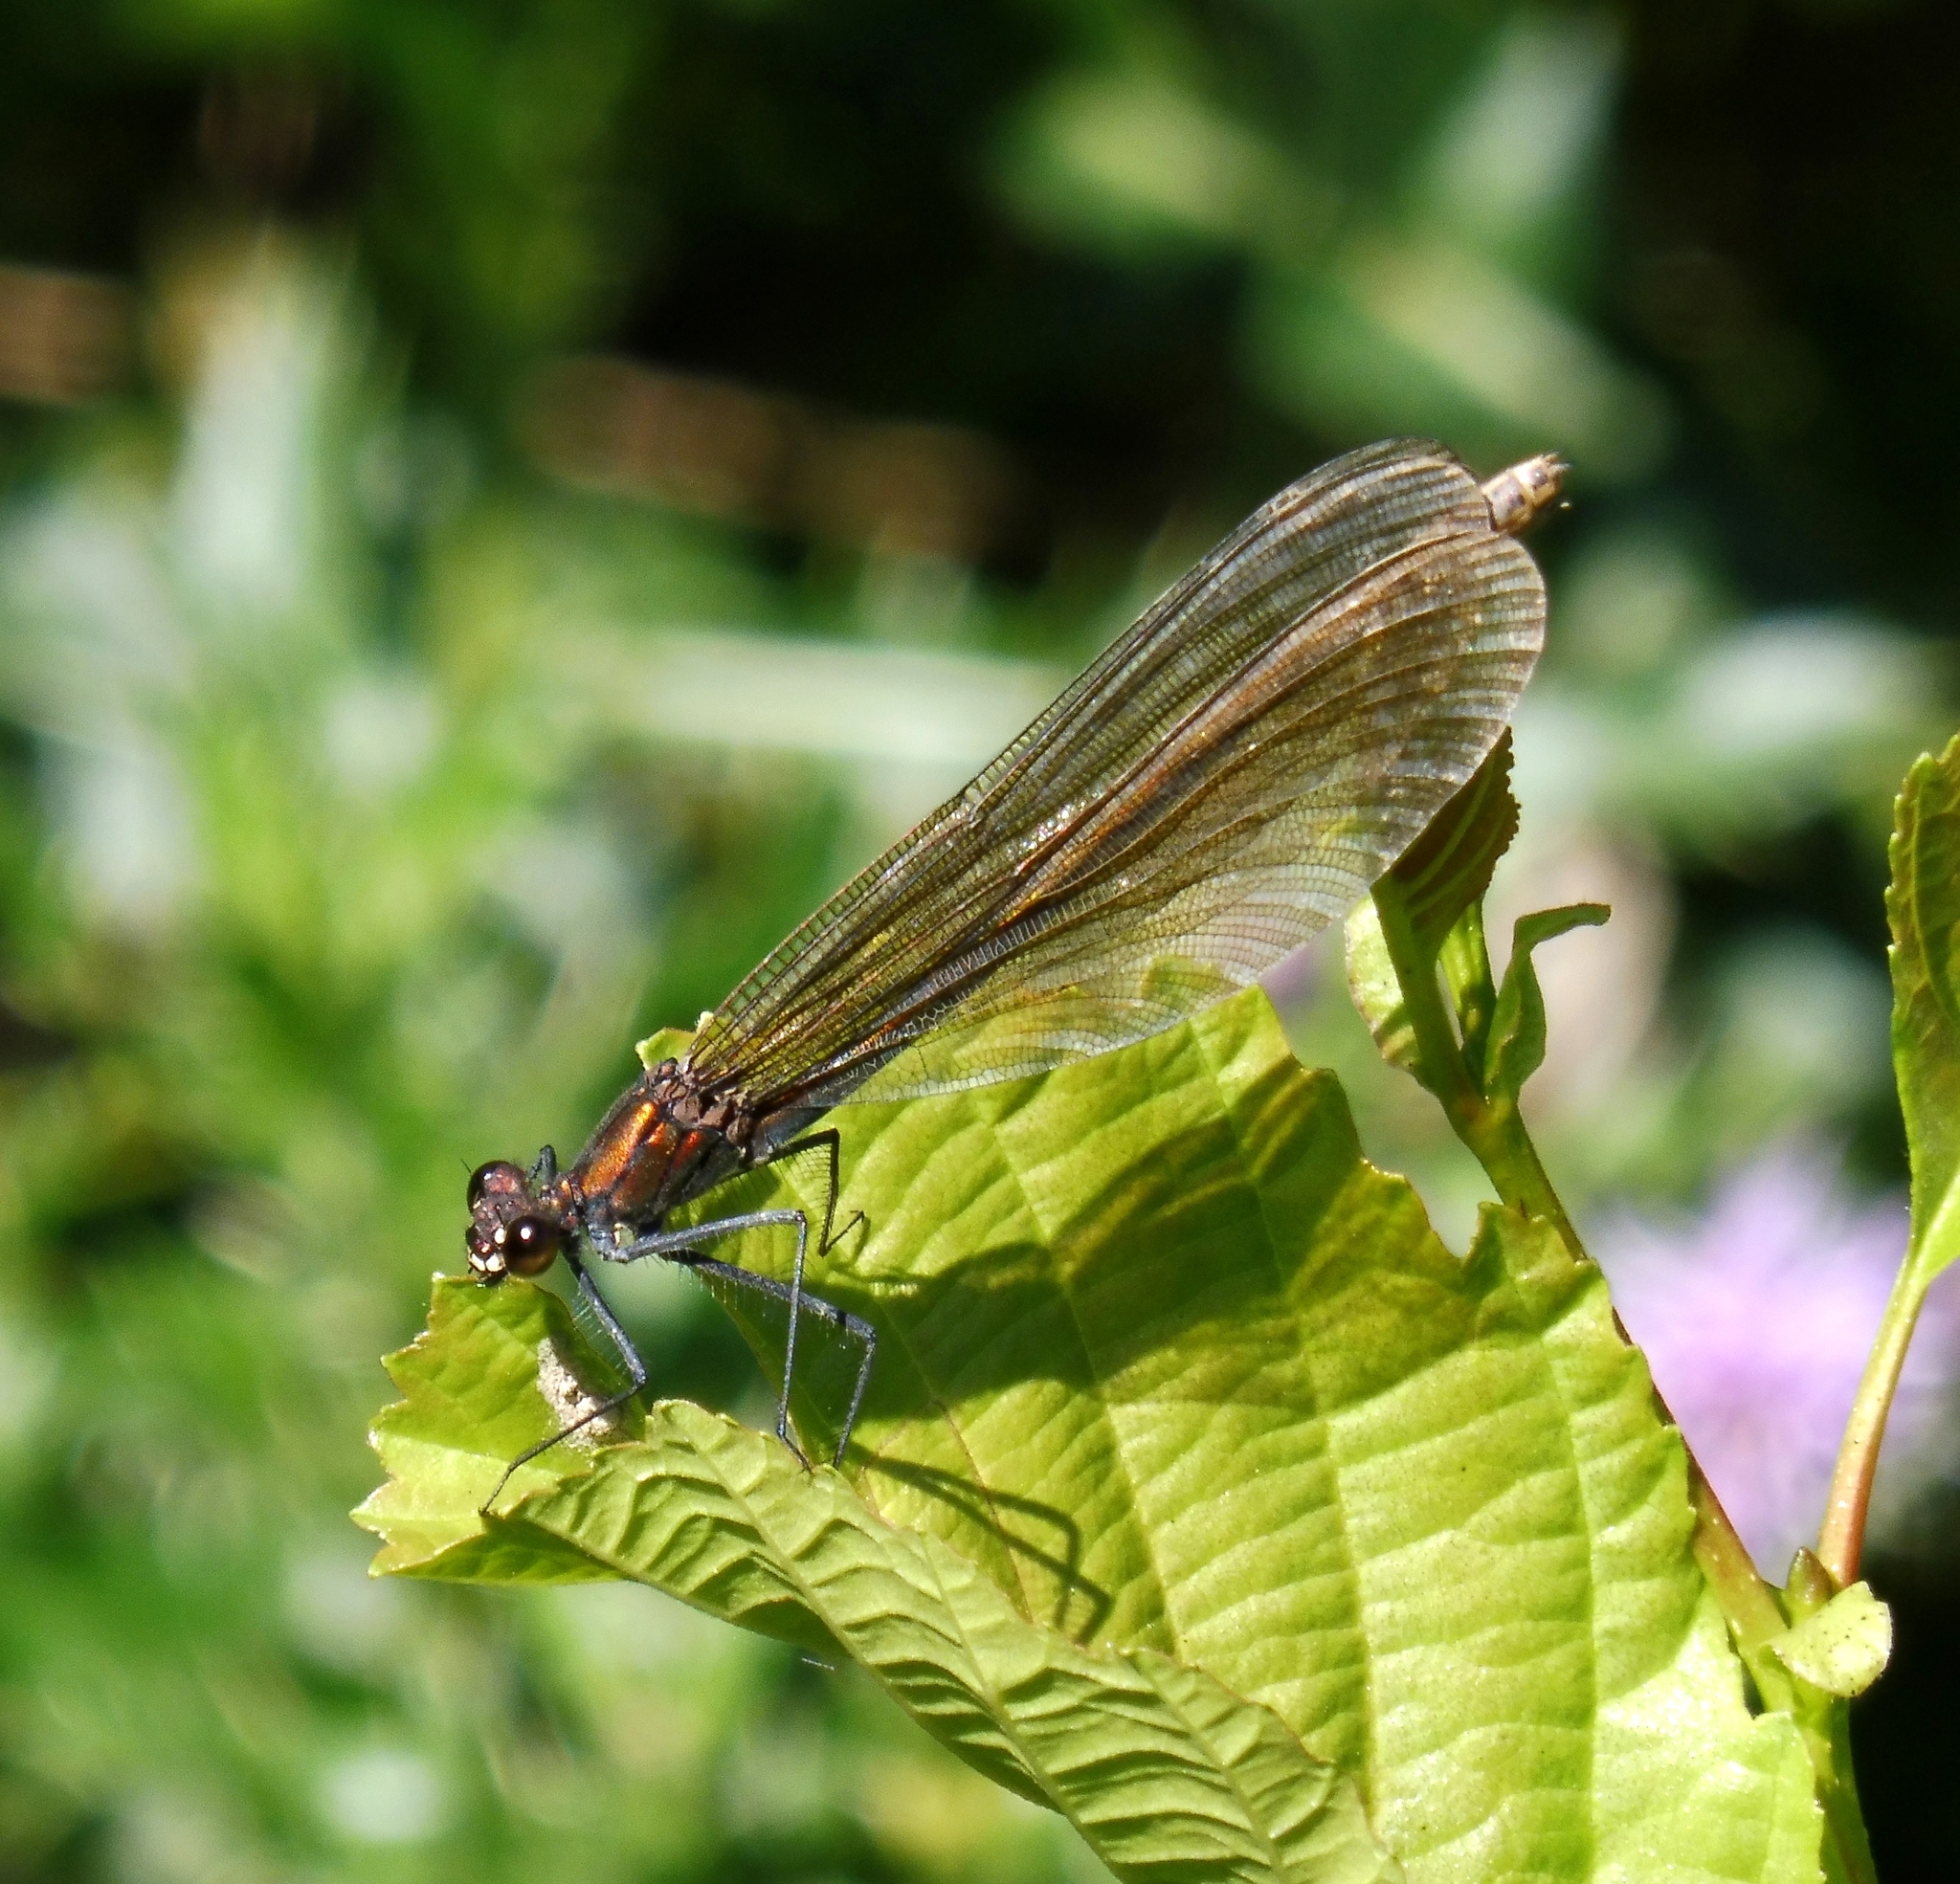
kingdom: Animalia
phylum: Arthropoda
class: Insecta
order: Odonata
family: Calopterygidae
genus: Calopteryx
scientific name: Calopteryx splendens
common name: Banded demoiselle
